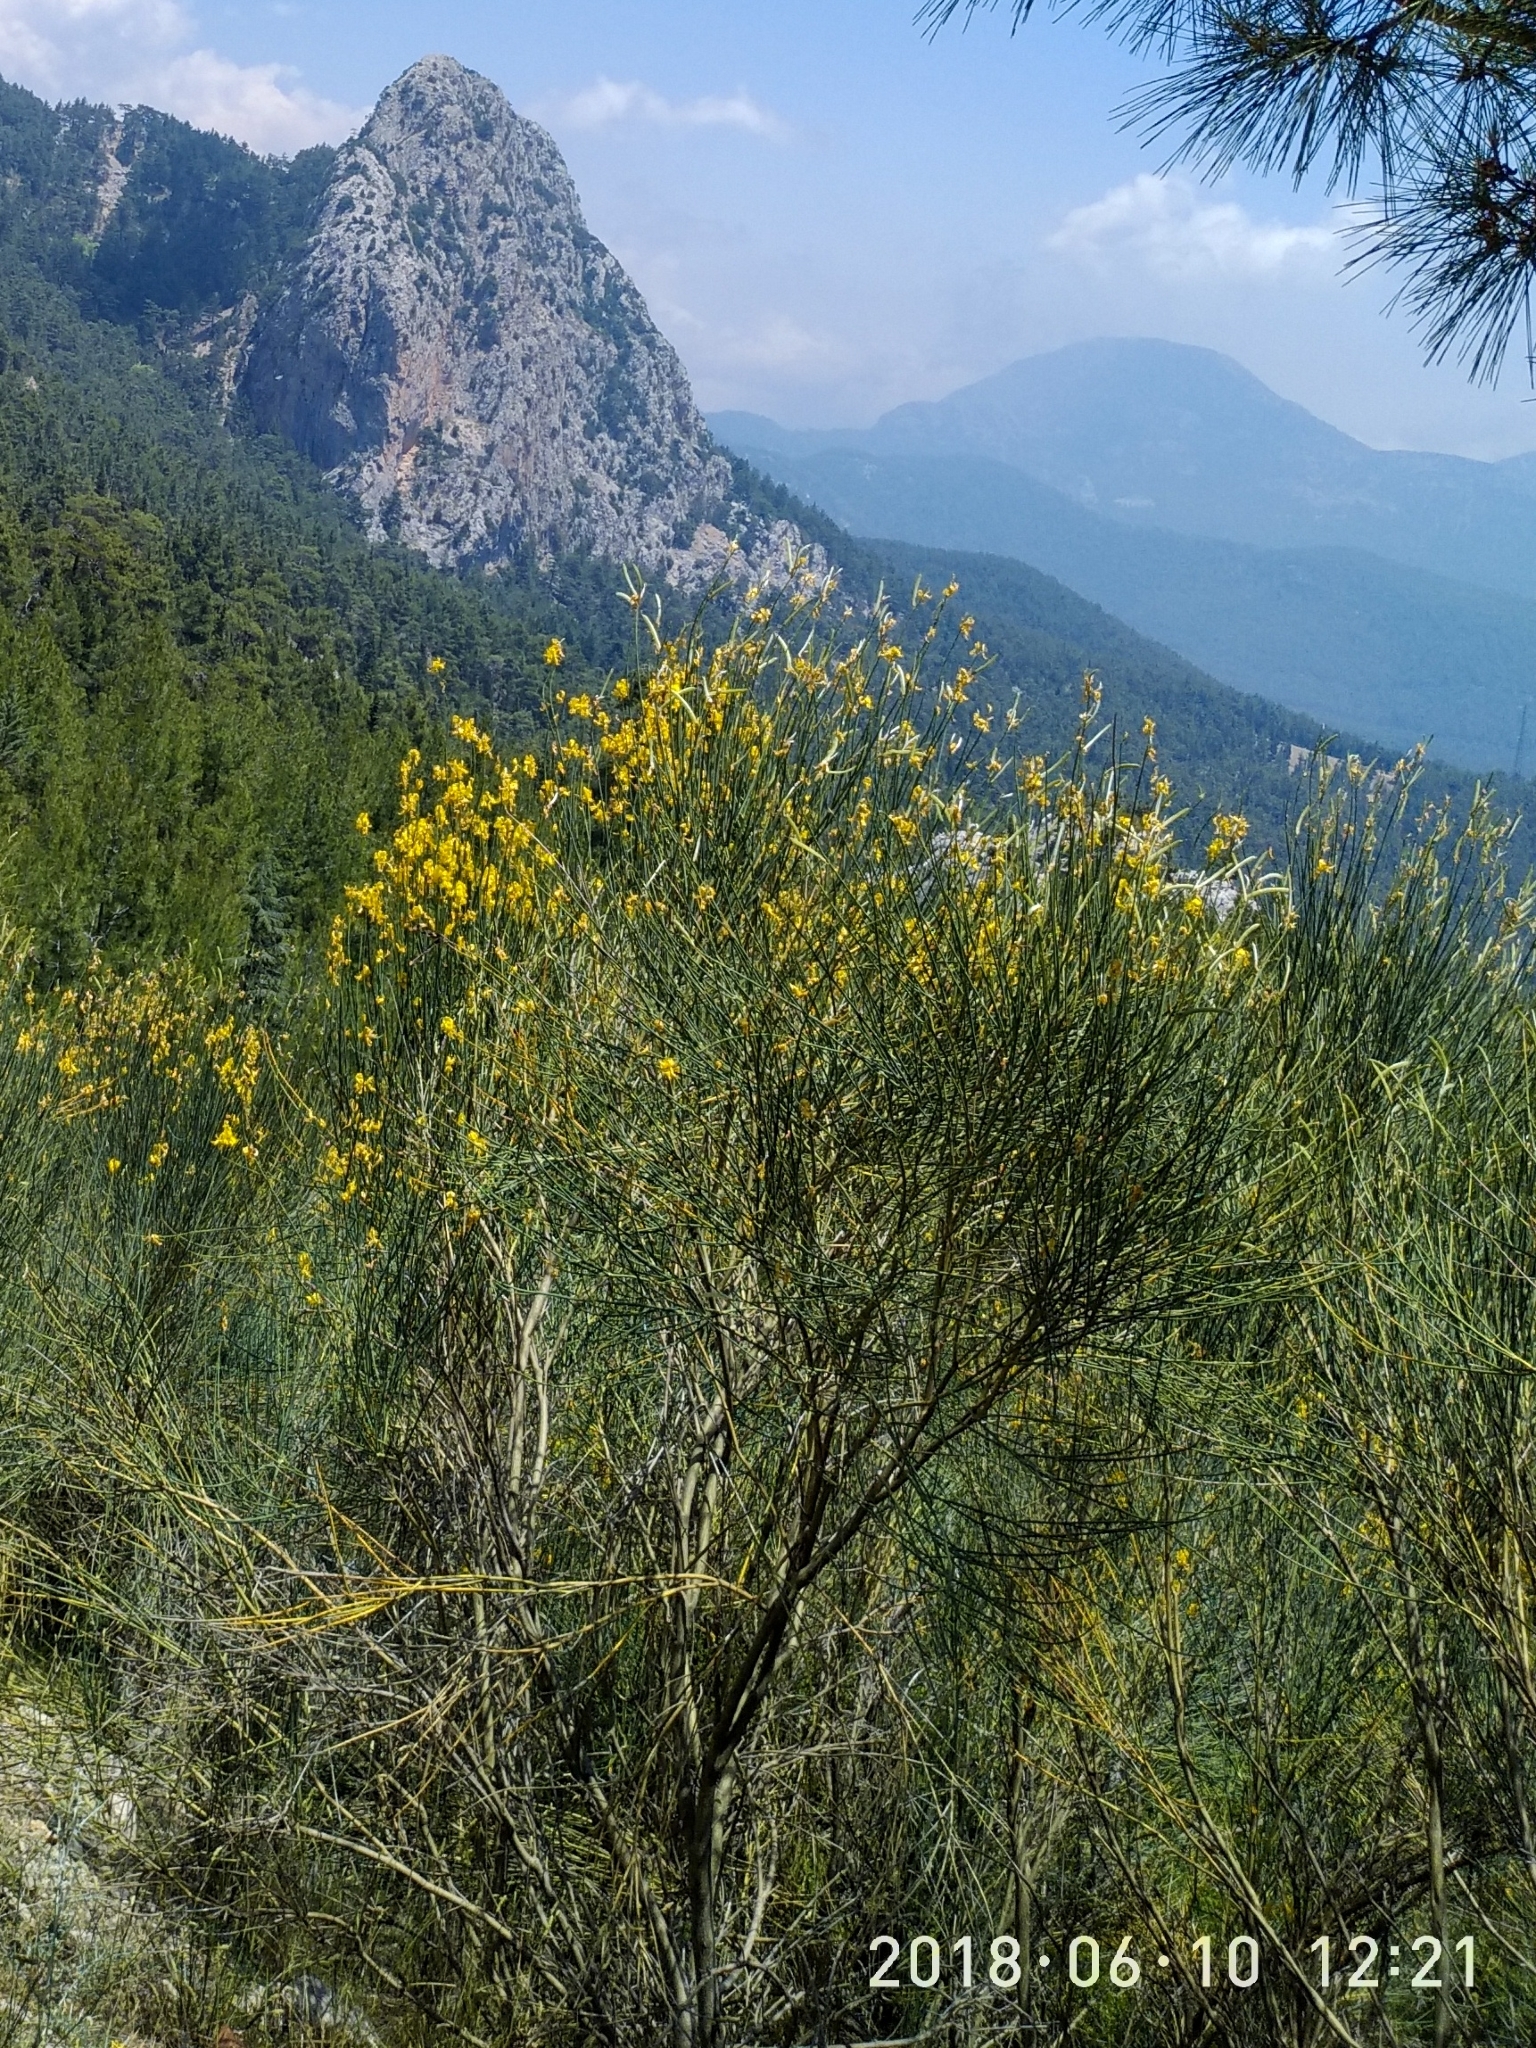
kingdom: Plantae
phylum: Tracheophyta
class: Magnoliopsida
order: Fabales
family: Fabaceae
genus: Spartium
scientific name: Spartium junceum
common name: Spanish broom
